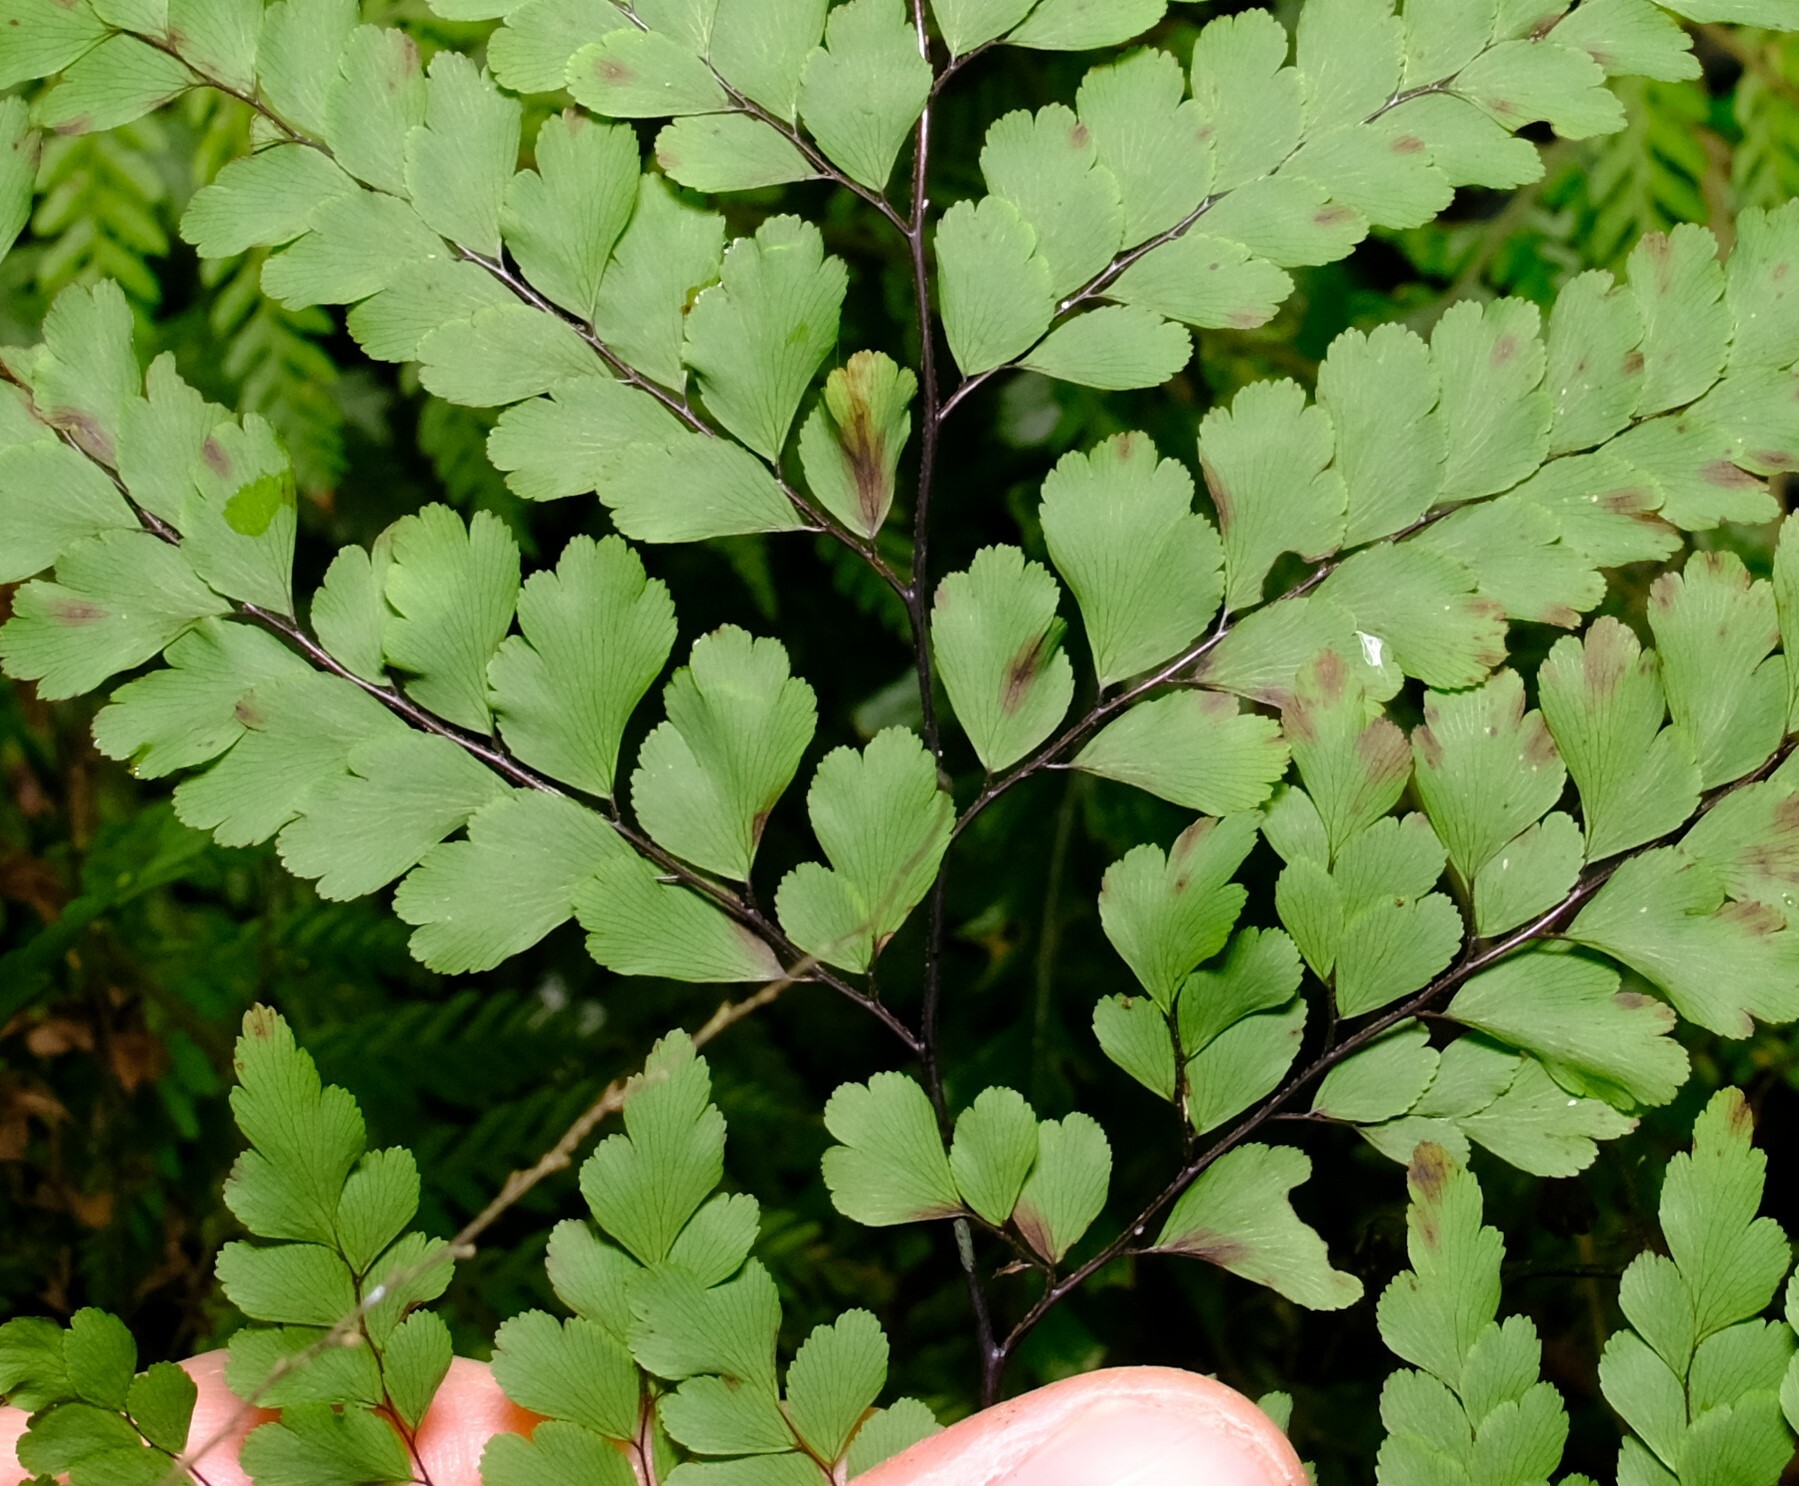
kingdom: Plantae
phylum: Tracheophyta
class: Polypodiopsida
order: Polypodiales
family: Pteridaceae
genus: Adiantum
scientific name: Adiantum formosum
